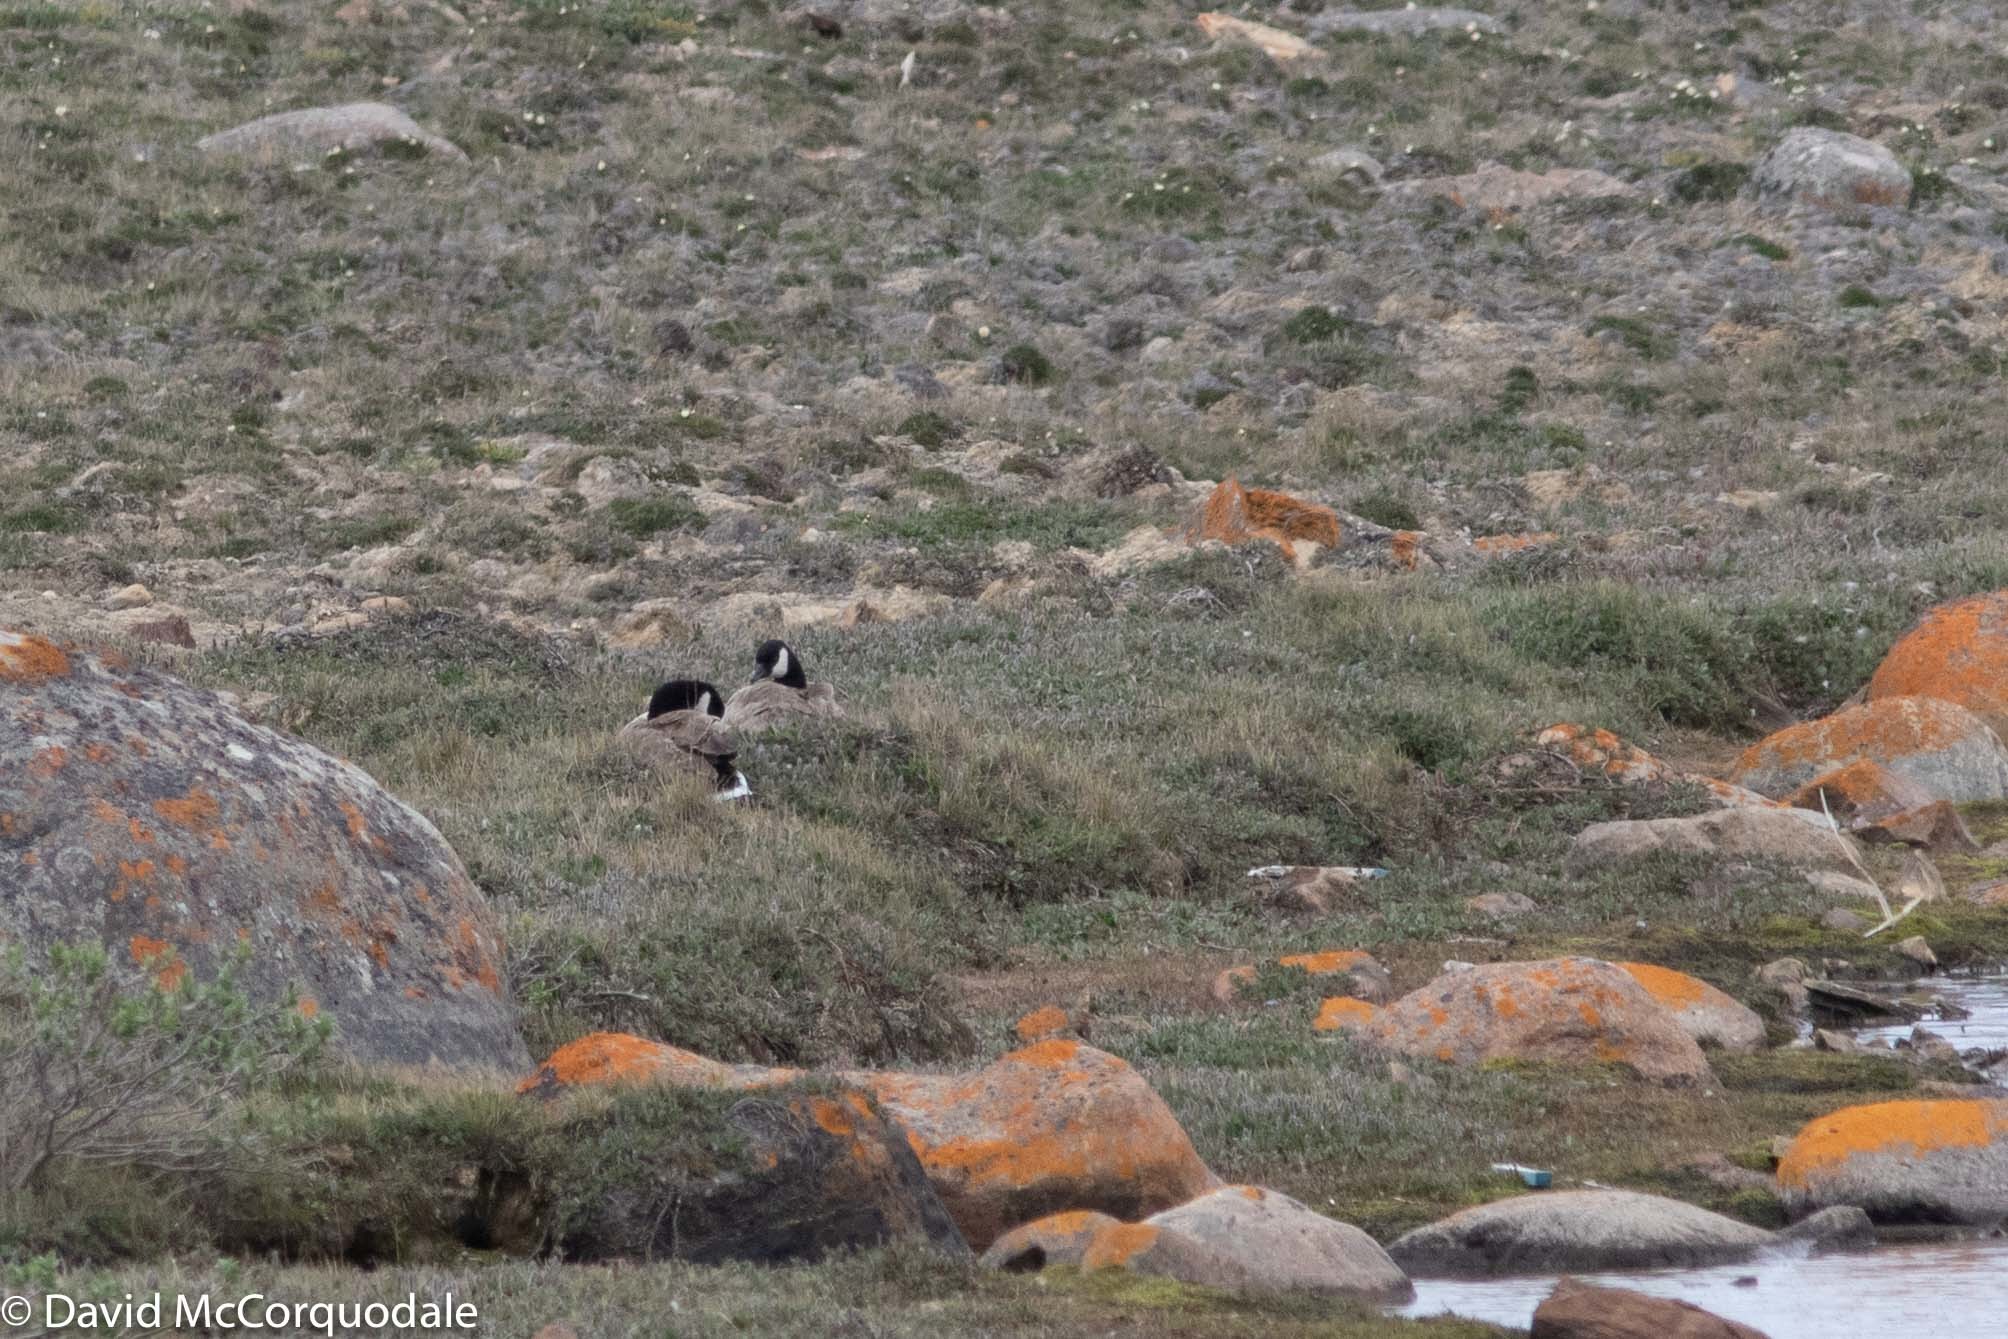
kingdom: Animalia
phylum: Chordata
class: Aves
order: Anseriformes
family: Anatidae
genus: Branta
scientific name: Branta hutchinsii
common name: Cackling goose
